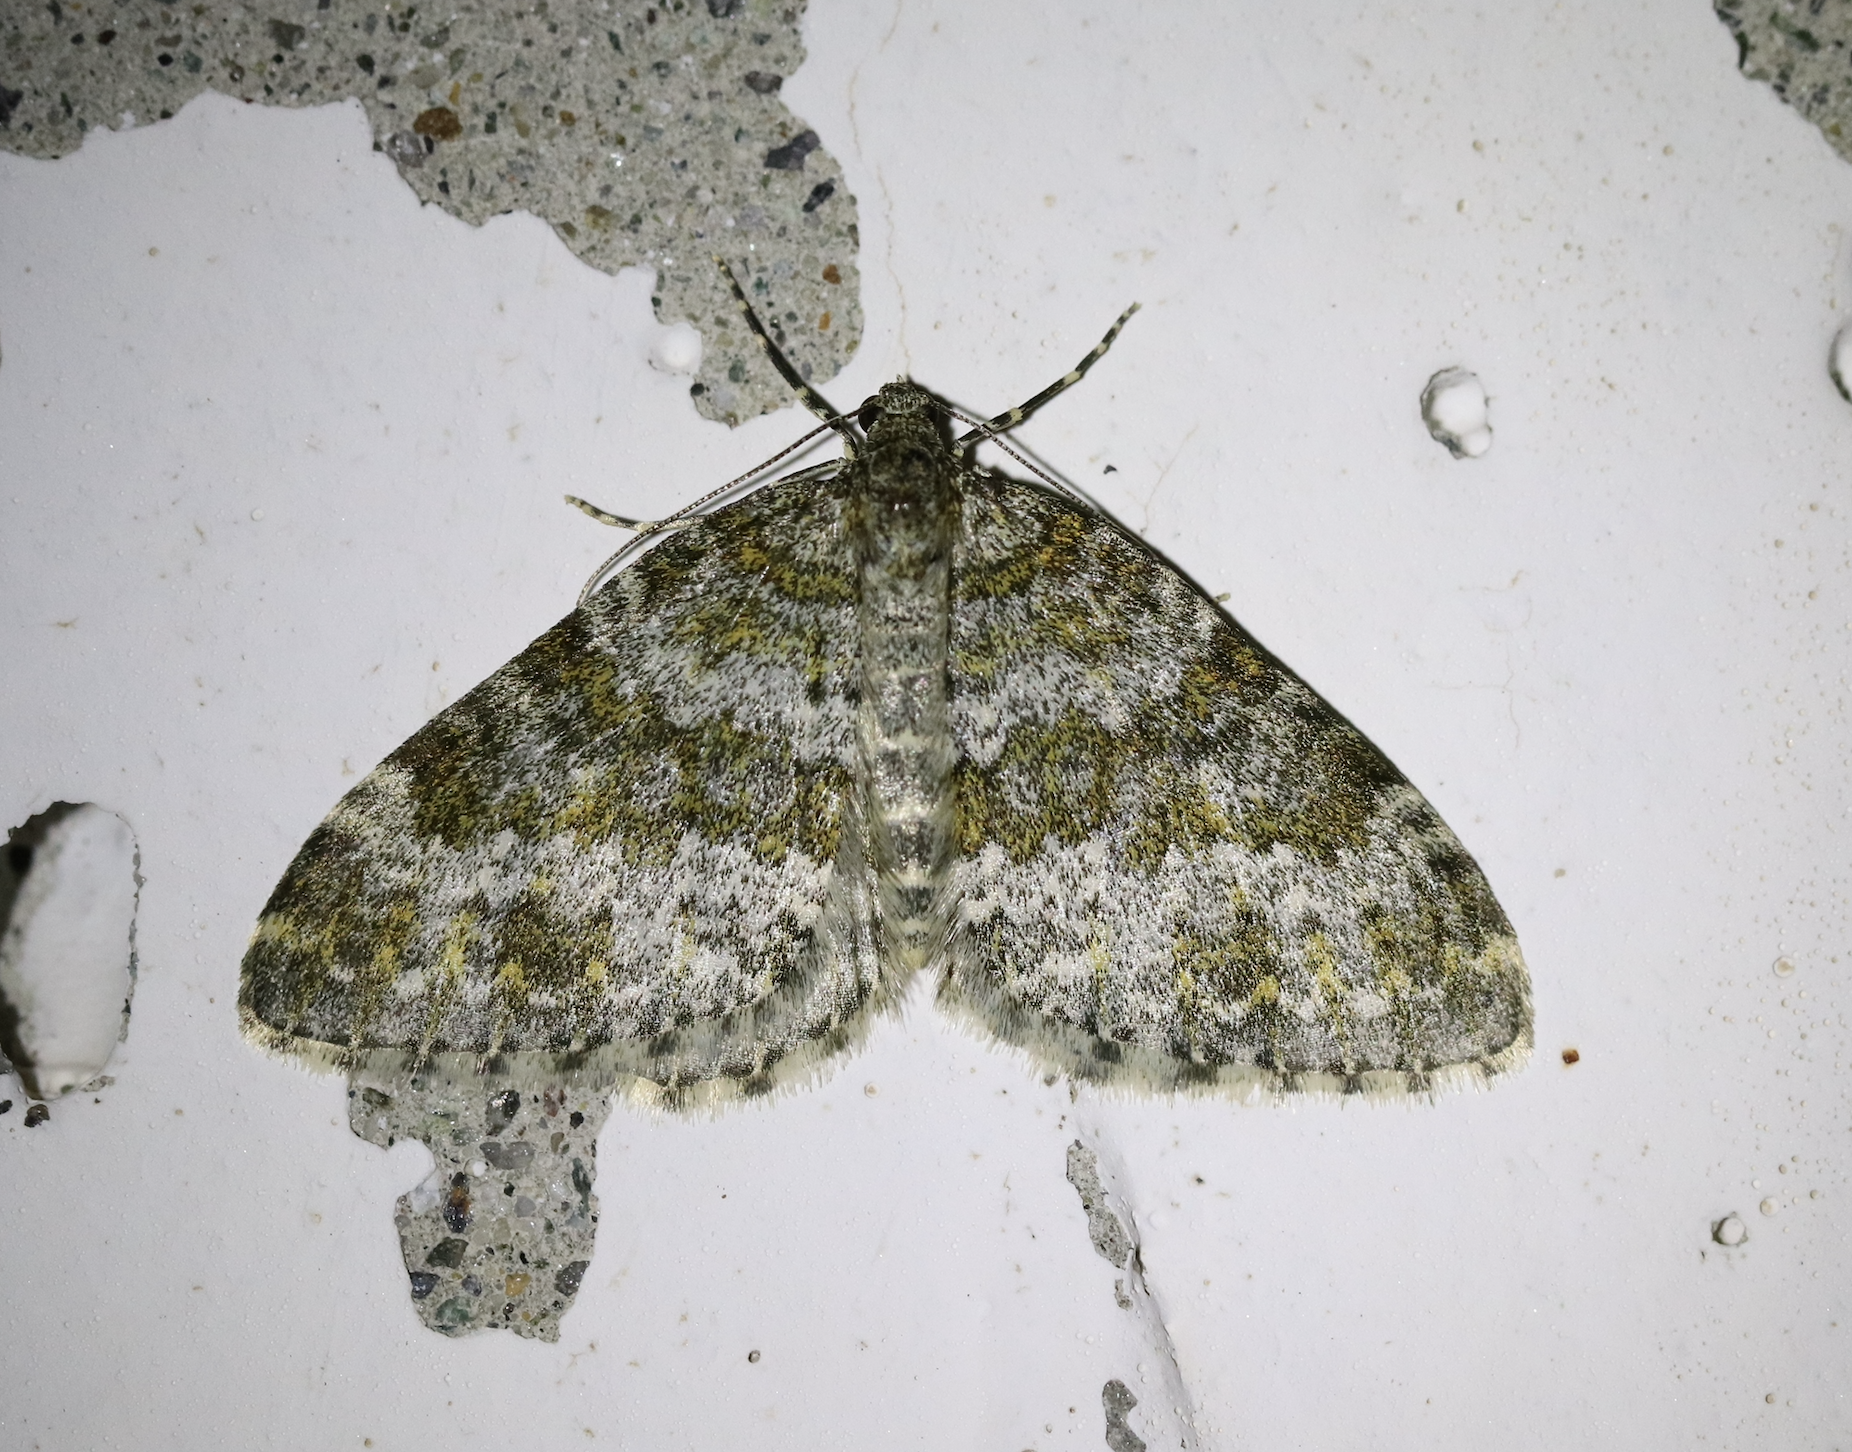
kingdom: Animalia
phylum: Arthropoda
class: Insecta
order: Lepidoptera
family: Geometridae
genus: Entephria
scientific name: Entephria flavicinctata
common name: Yellow-ringed carpet
